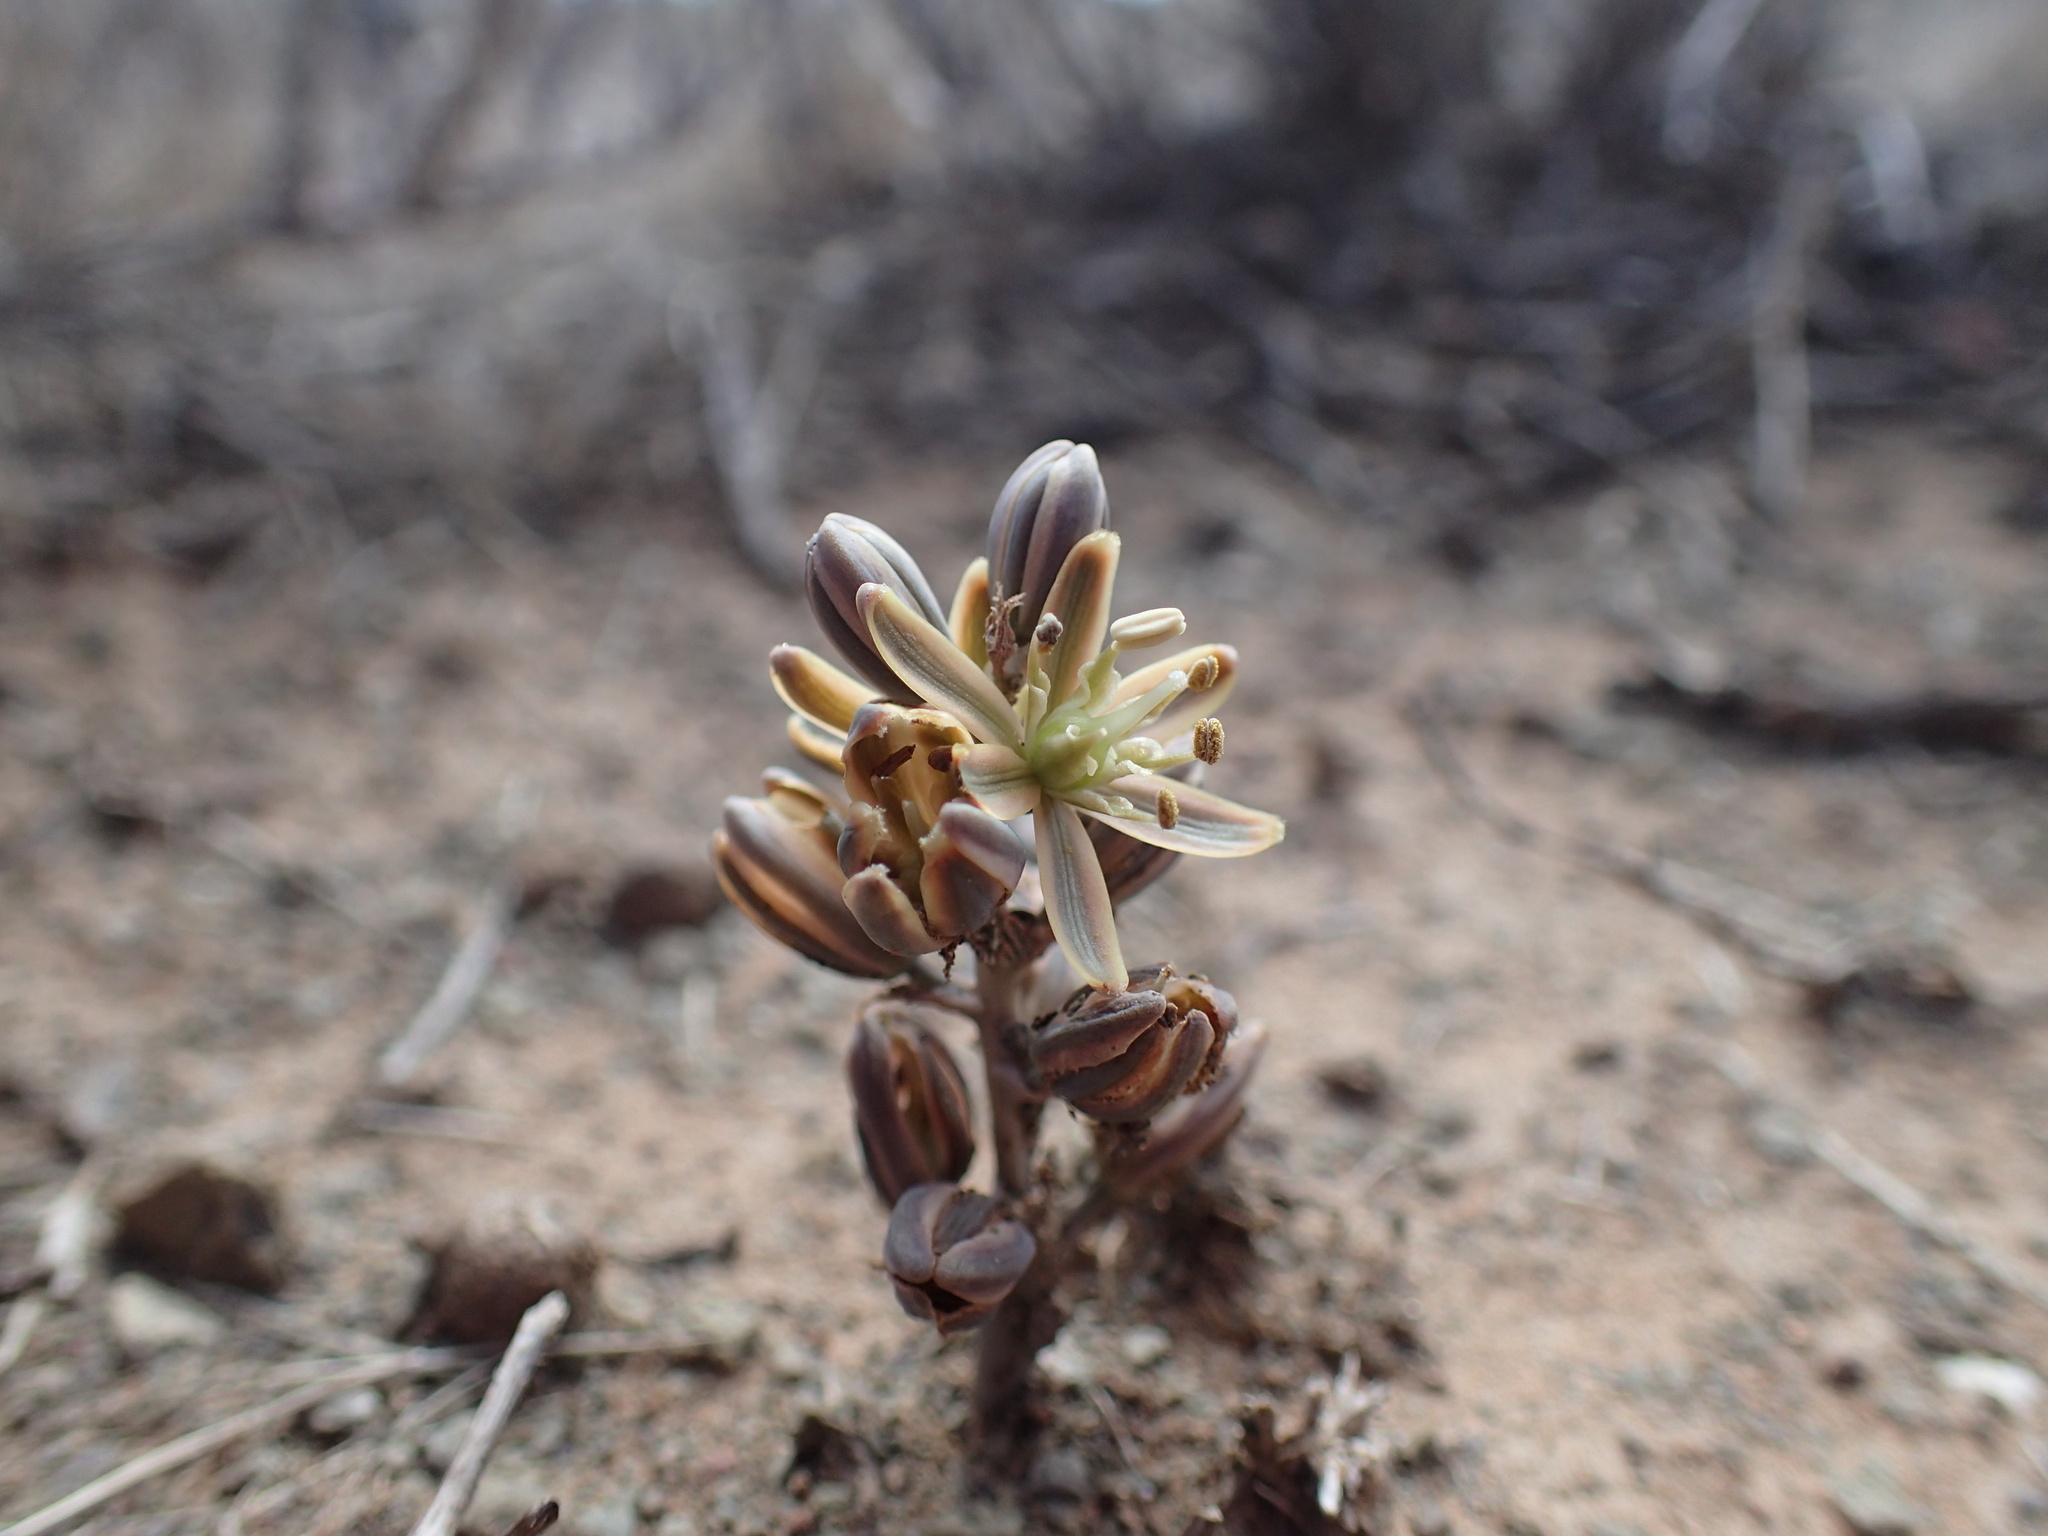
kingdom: Plantae
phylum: Tracheophyta
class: Liliopsida
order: Asparagales
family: Asparagaceae
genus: Albuca
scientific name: Albuca unifolia
